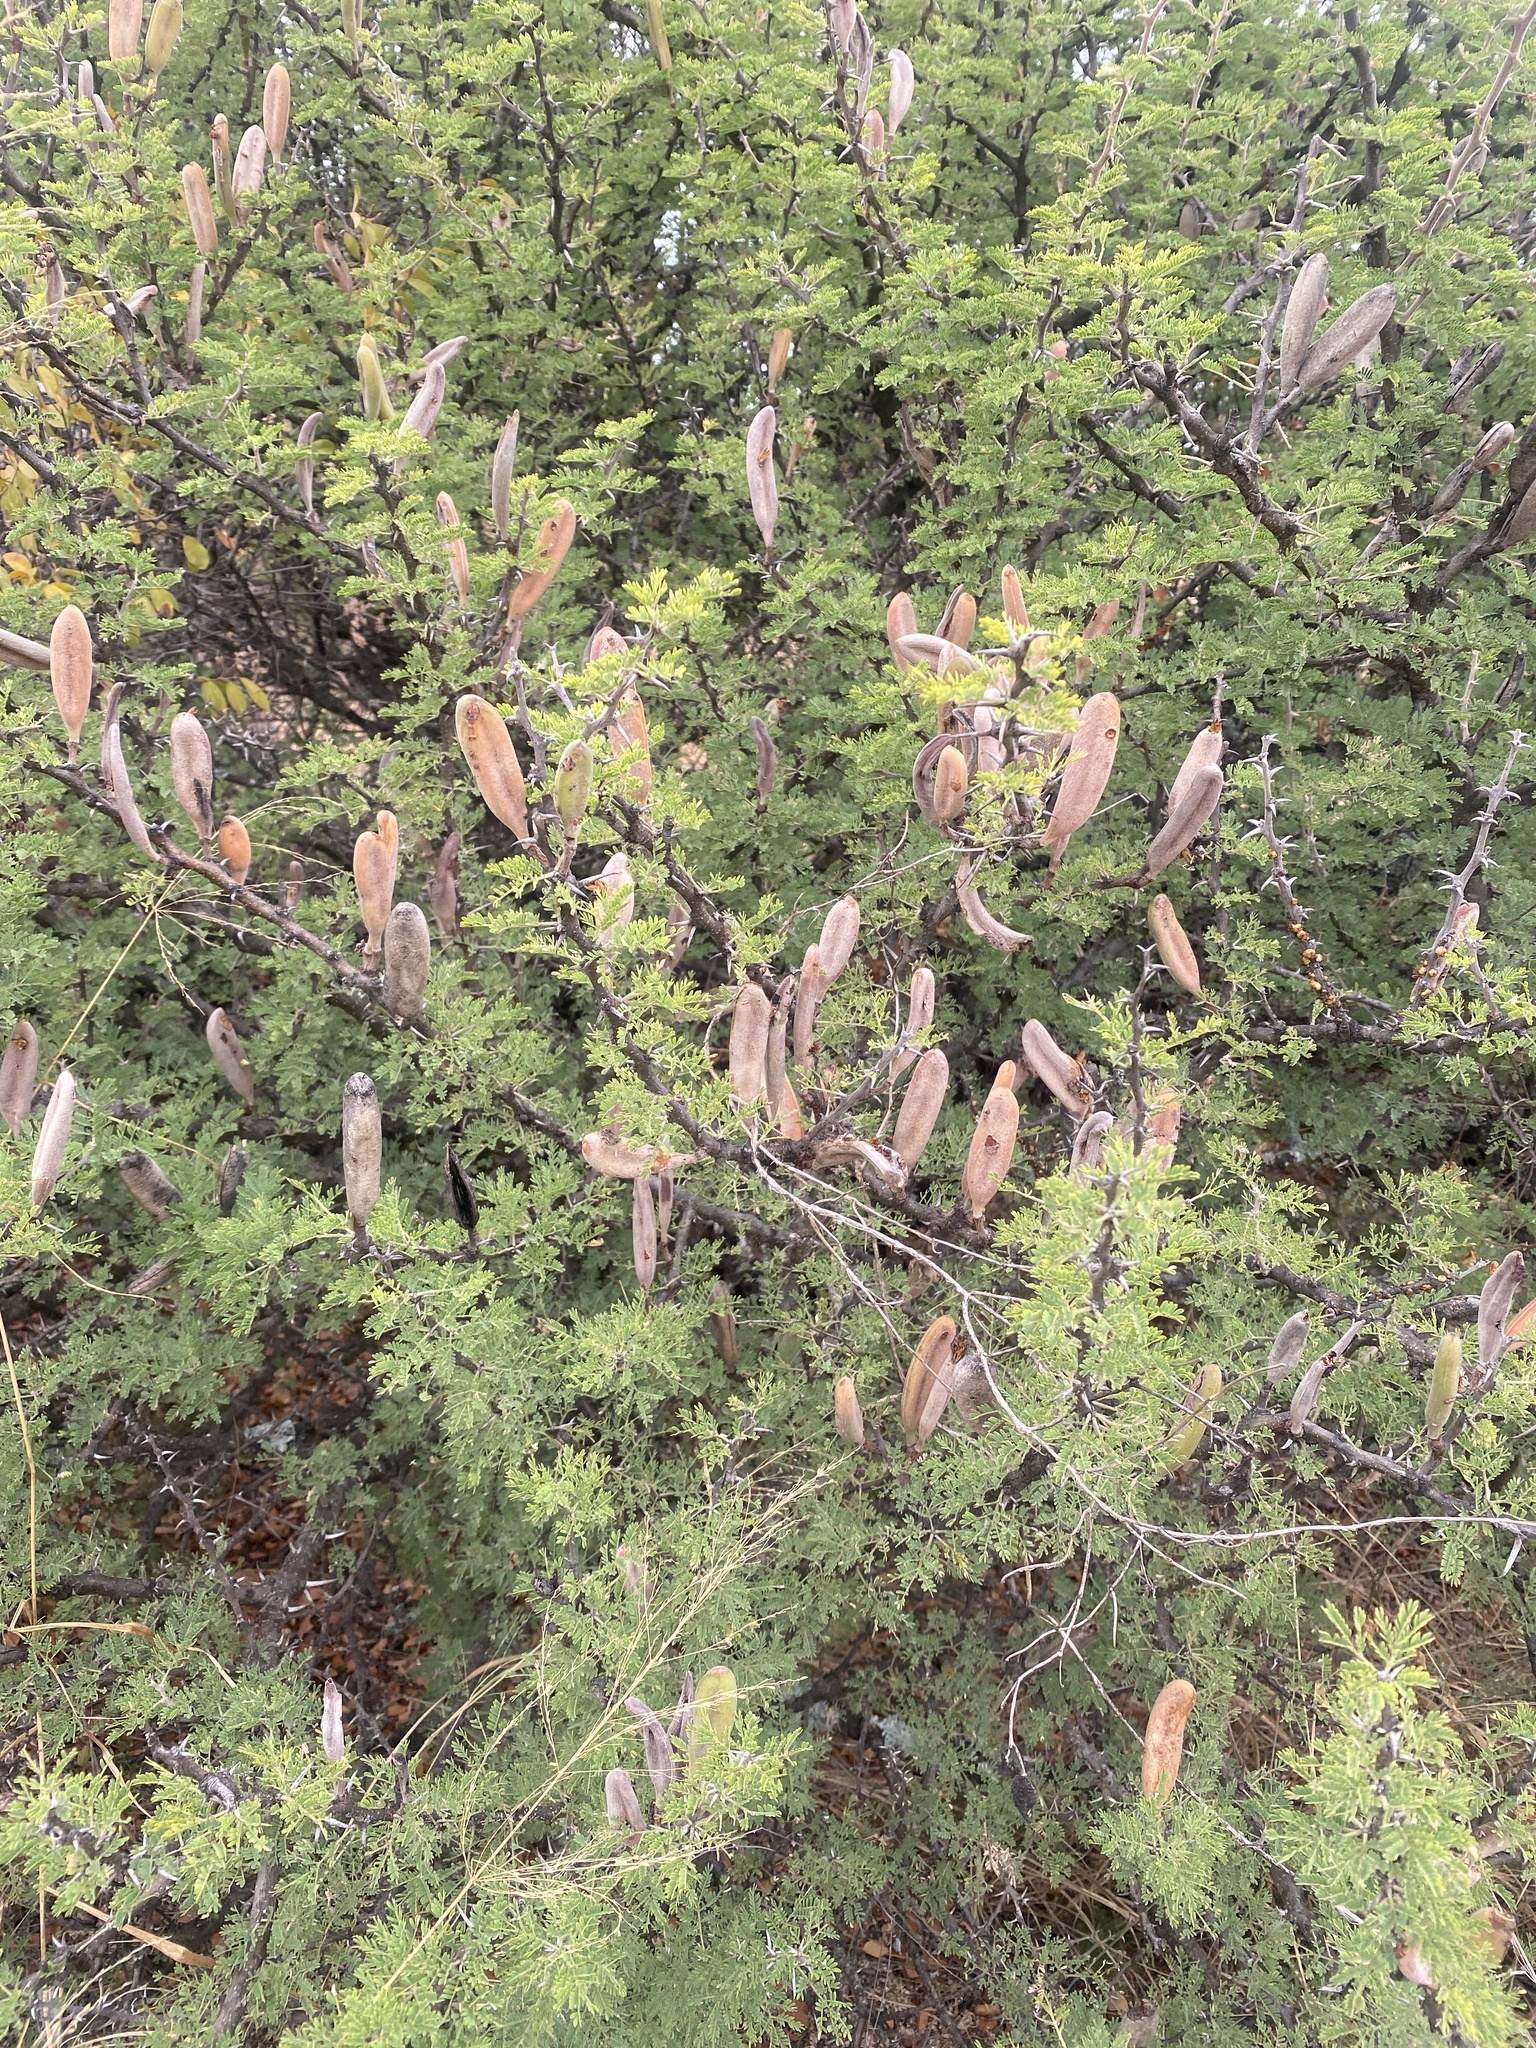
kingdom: Plantae
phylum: Tracheophyta
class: Magnoliopsida
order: Fabales
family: Fabaceae
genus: Vachellia
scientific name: Vachellia hebeclada
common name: Candle thorn
